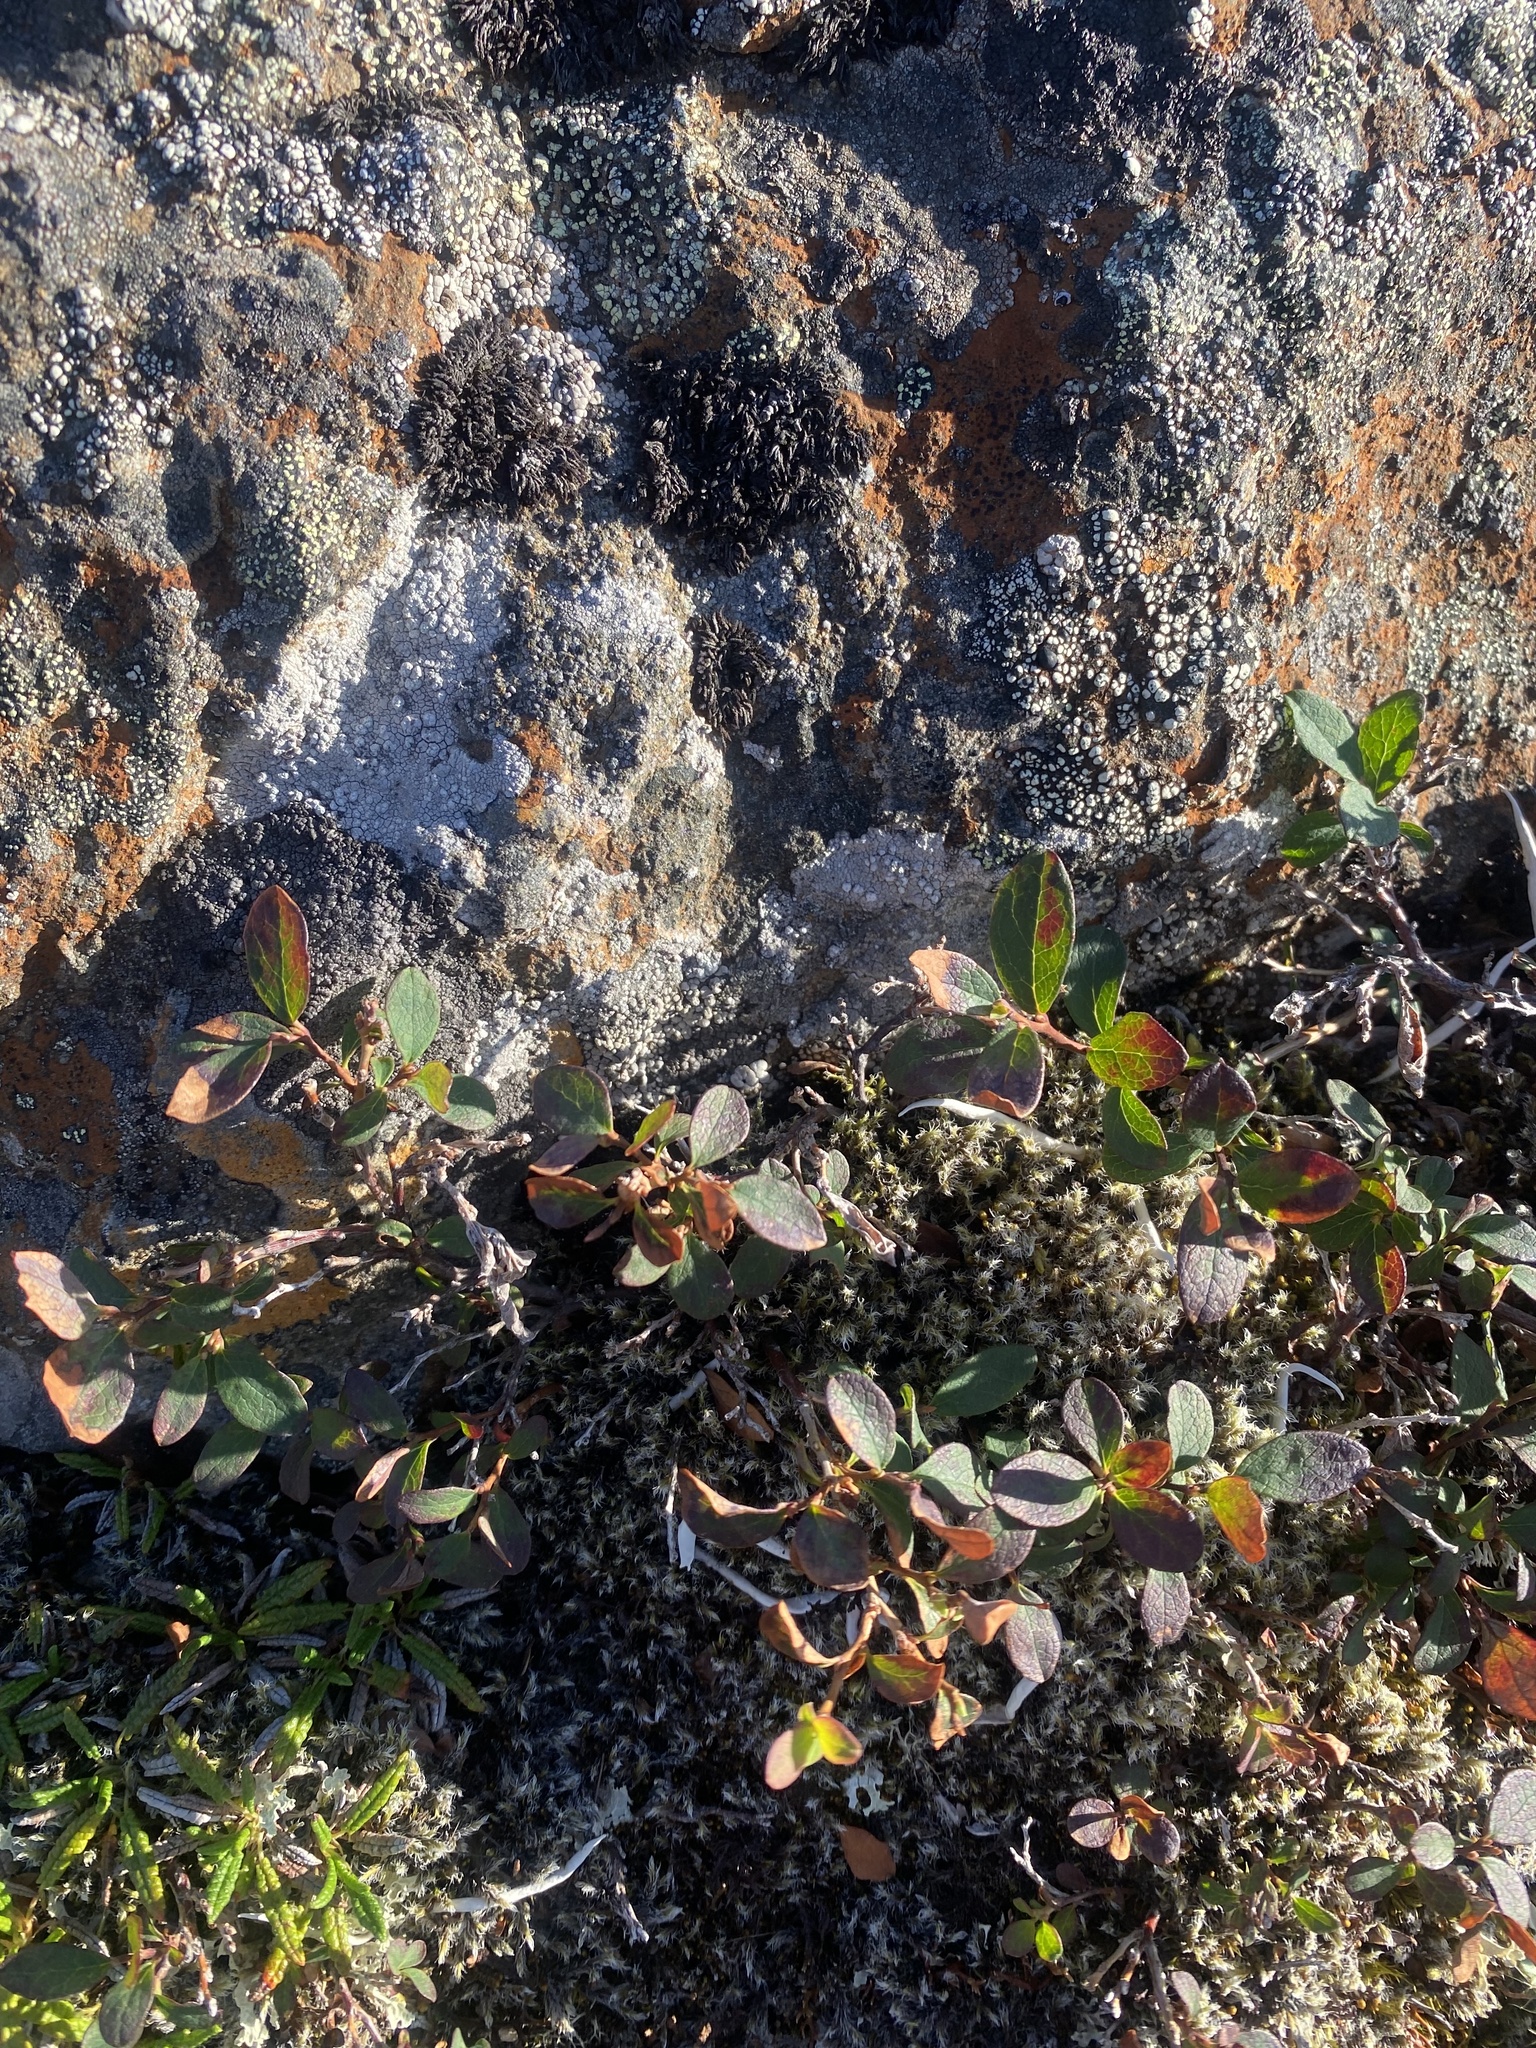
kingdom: Plantae
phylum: Tracheophyta
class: Magnoliopsida
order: Ericales
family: Ericaceae
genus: Vaccinium
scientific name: Vaccinium uliginosum
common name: Bog bilberry
